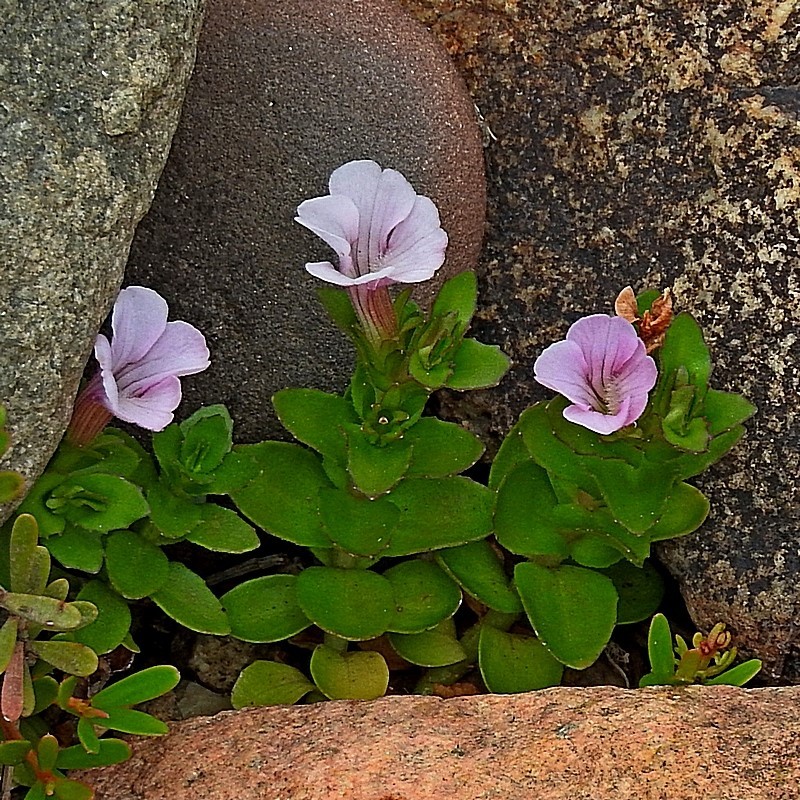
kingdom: Plantae
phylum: Tracheophyta
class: Magnoliopsida
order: Lamiales
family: Plantaginaceae
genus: Gratiola
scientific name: Gratiola peruviana
